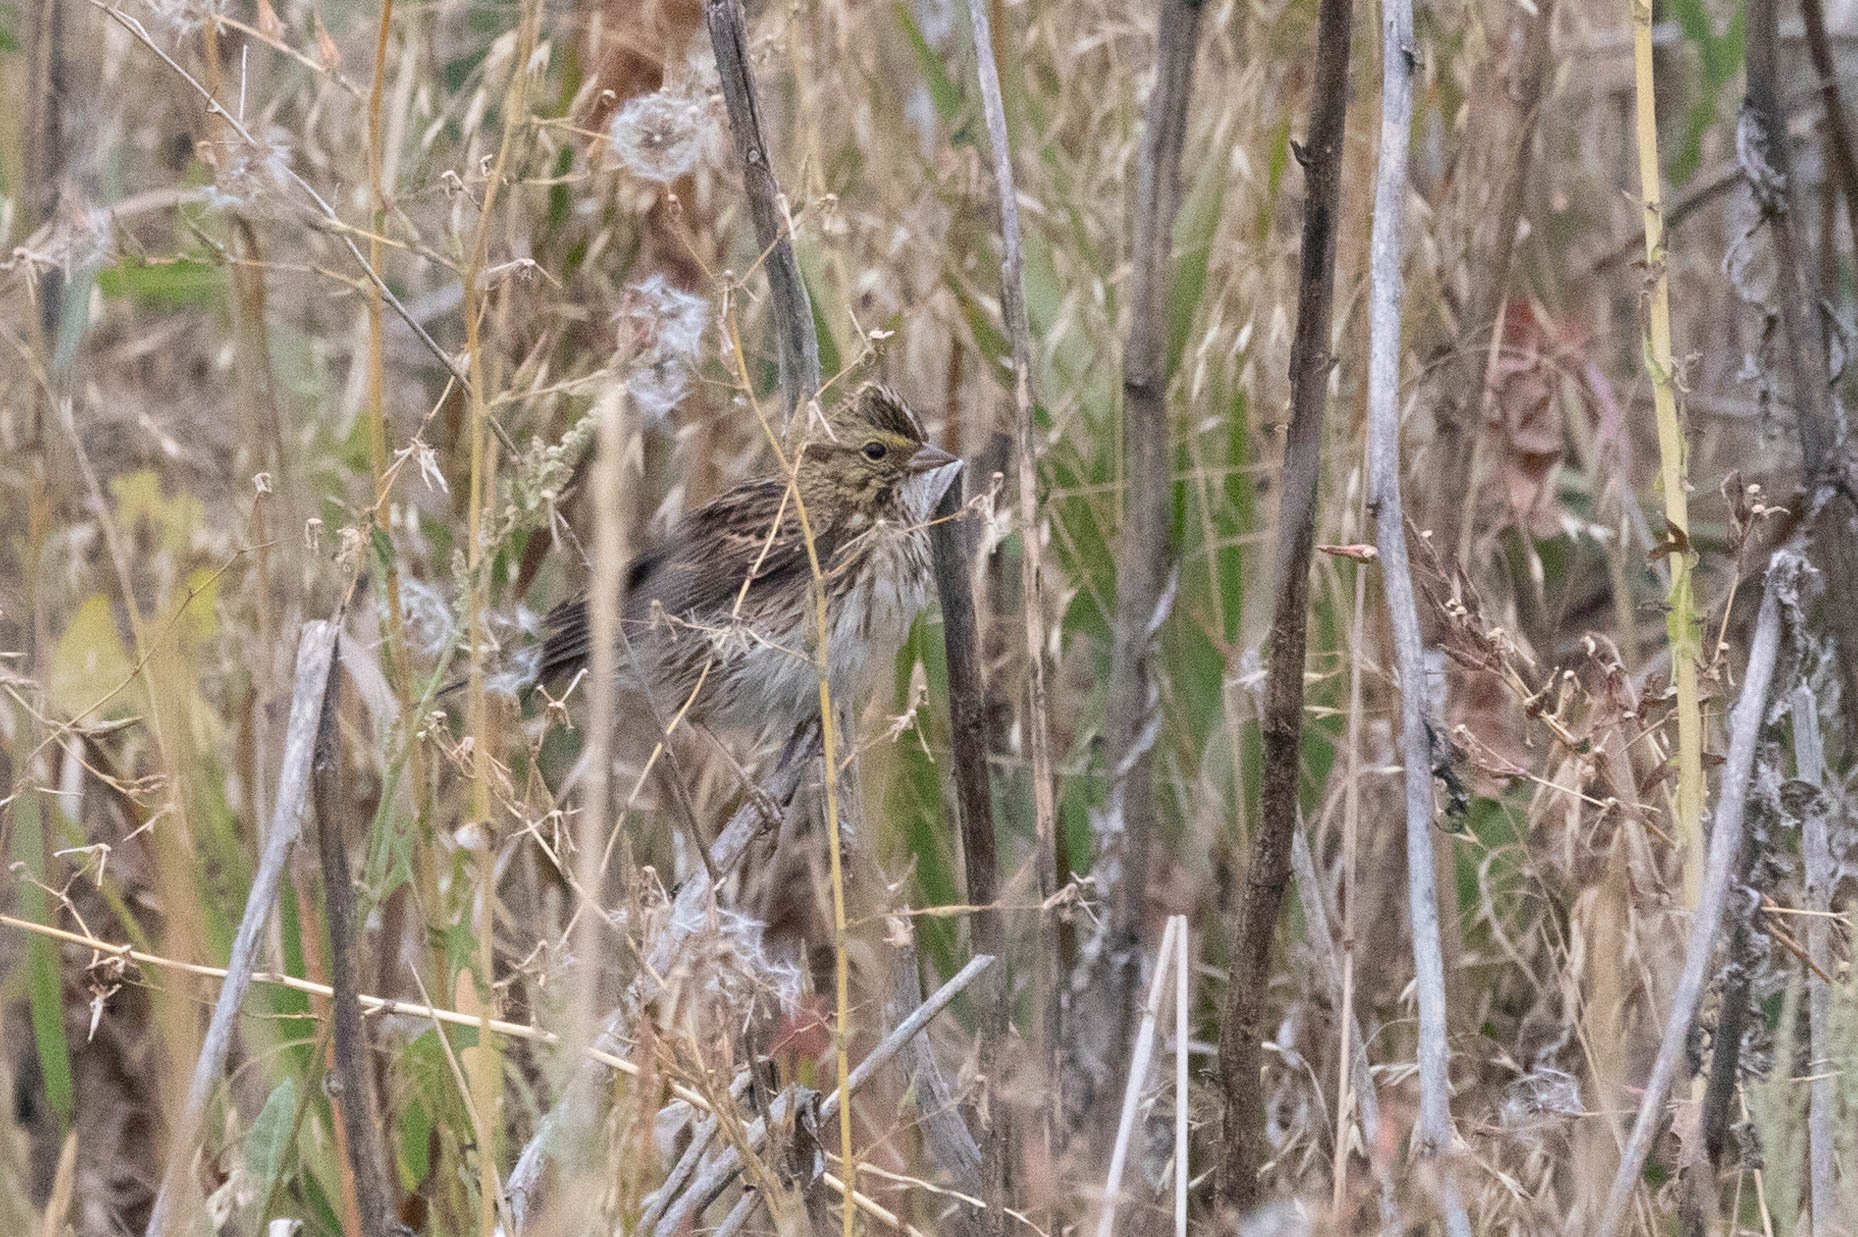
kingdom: Animalia
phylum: Chordata
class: Aves
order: Passeriformes
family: Passerellidae
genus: Passerculus
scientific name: Passerculus sandwichensis
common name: Savannah sparrow
